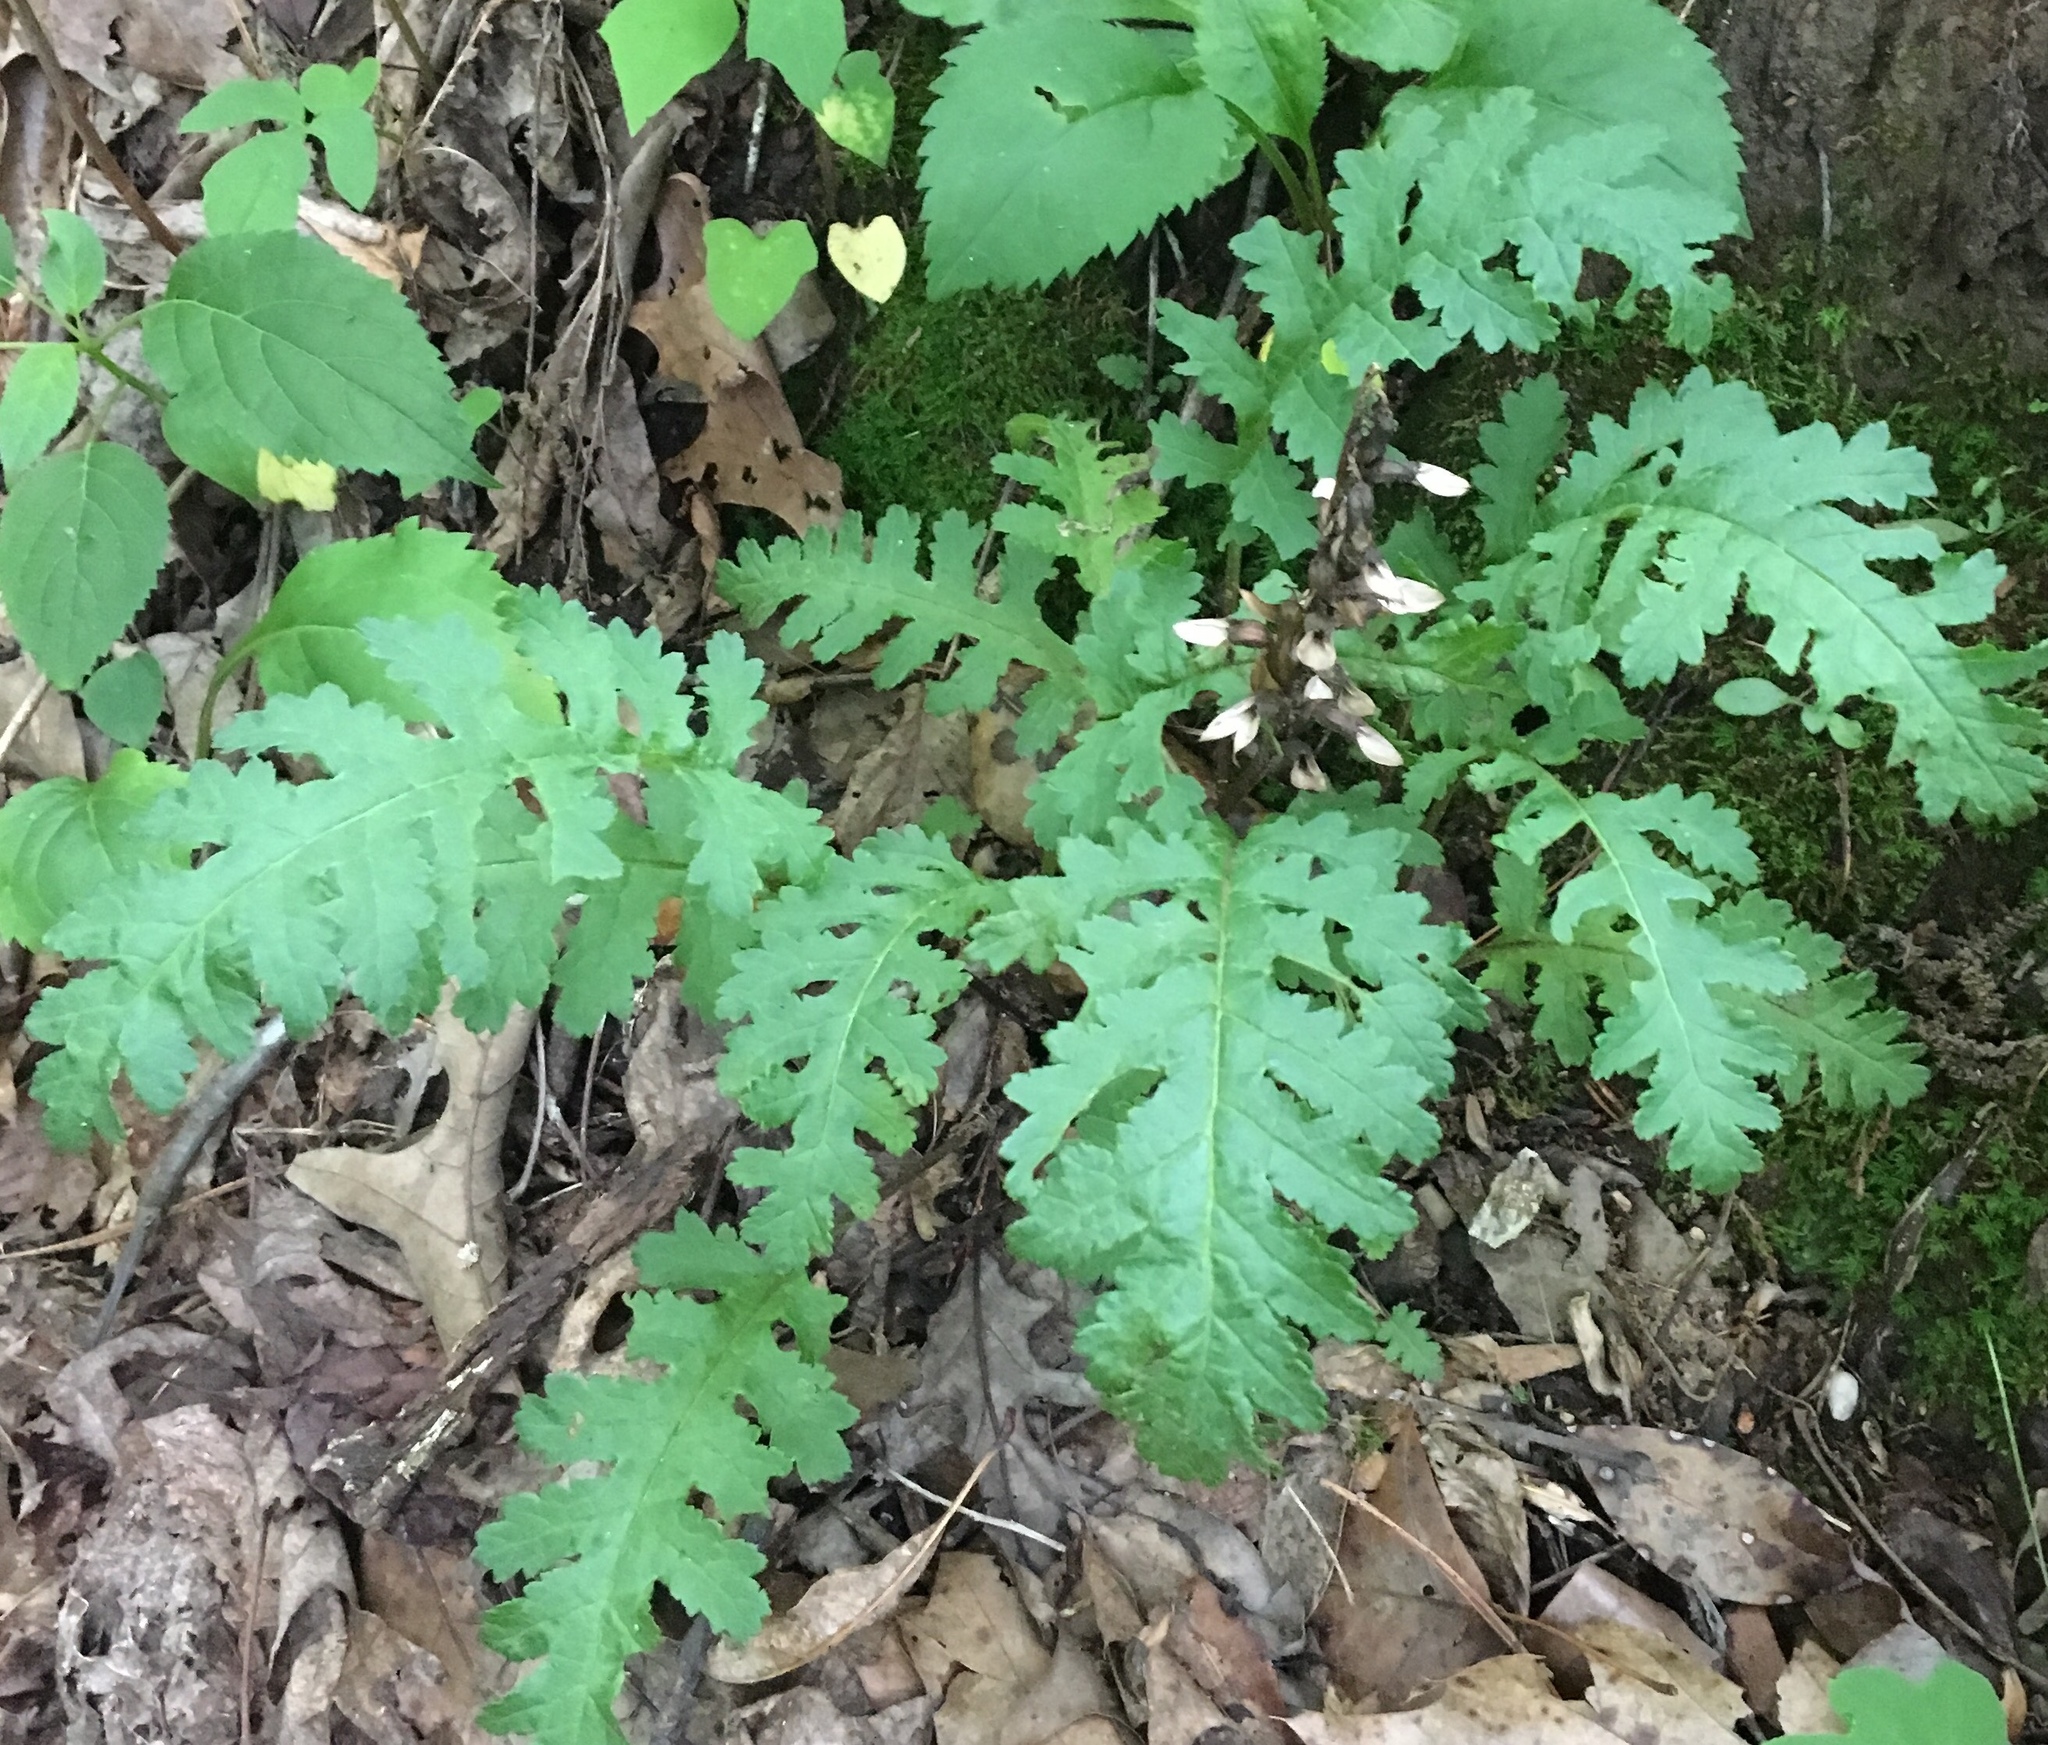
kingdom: Plantae
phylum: Tracheophyta
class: Magnoliopsida
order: Lamiales
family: Orobanchaceae
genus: Pedicularis
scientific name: Pedicularis canadensis
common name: Early lousewort
